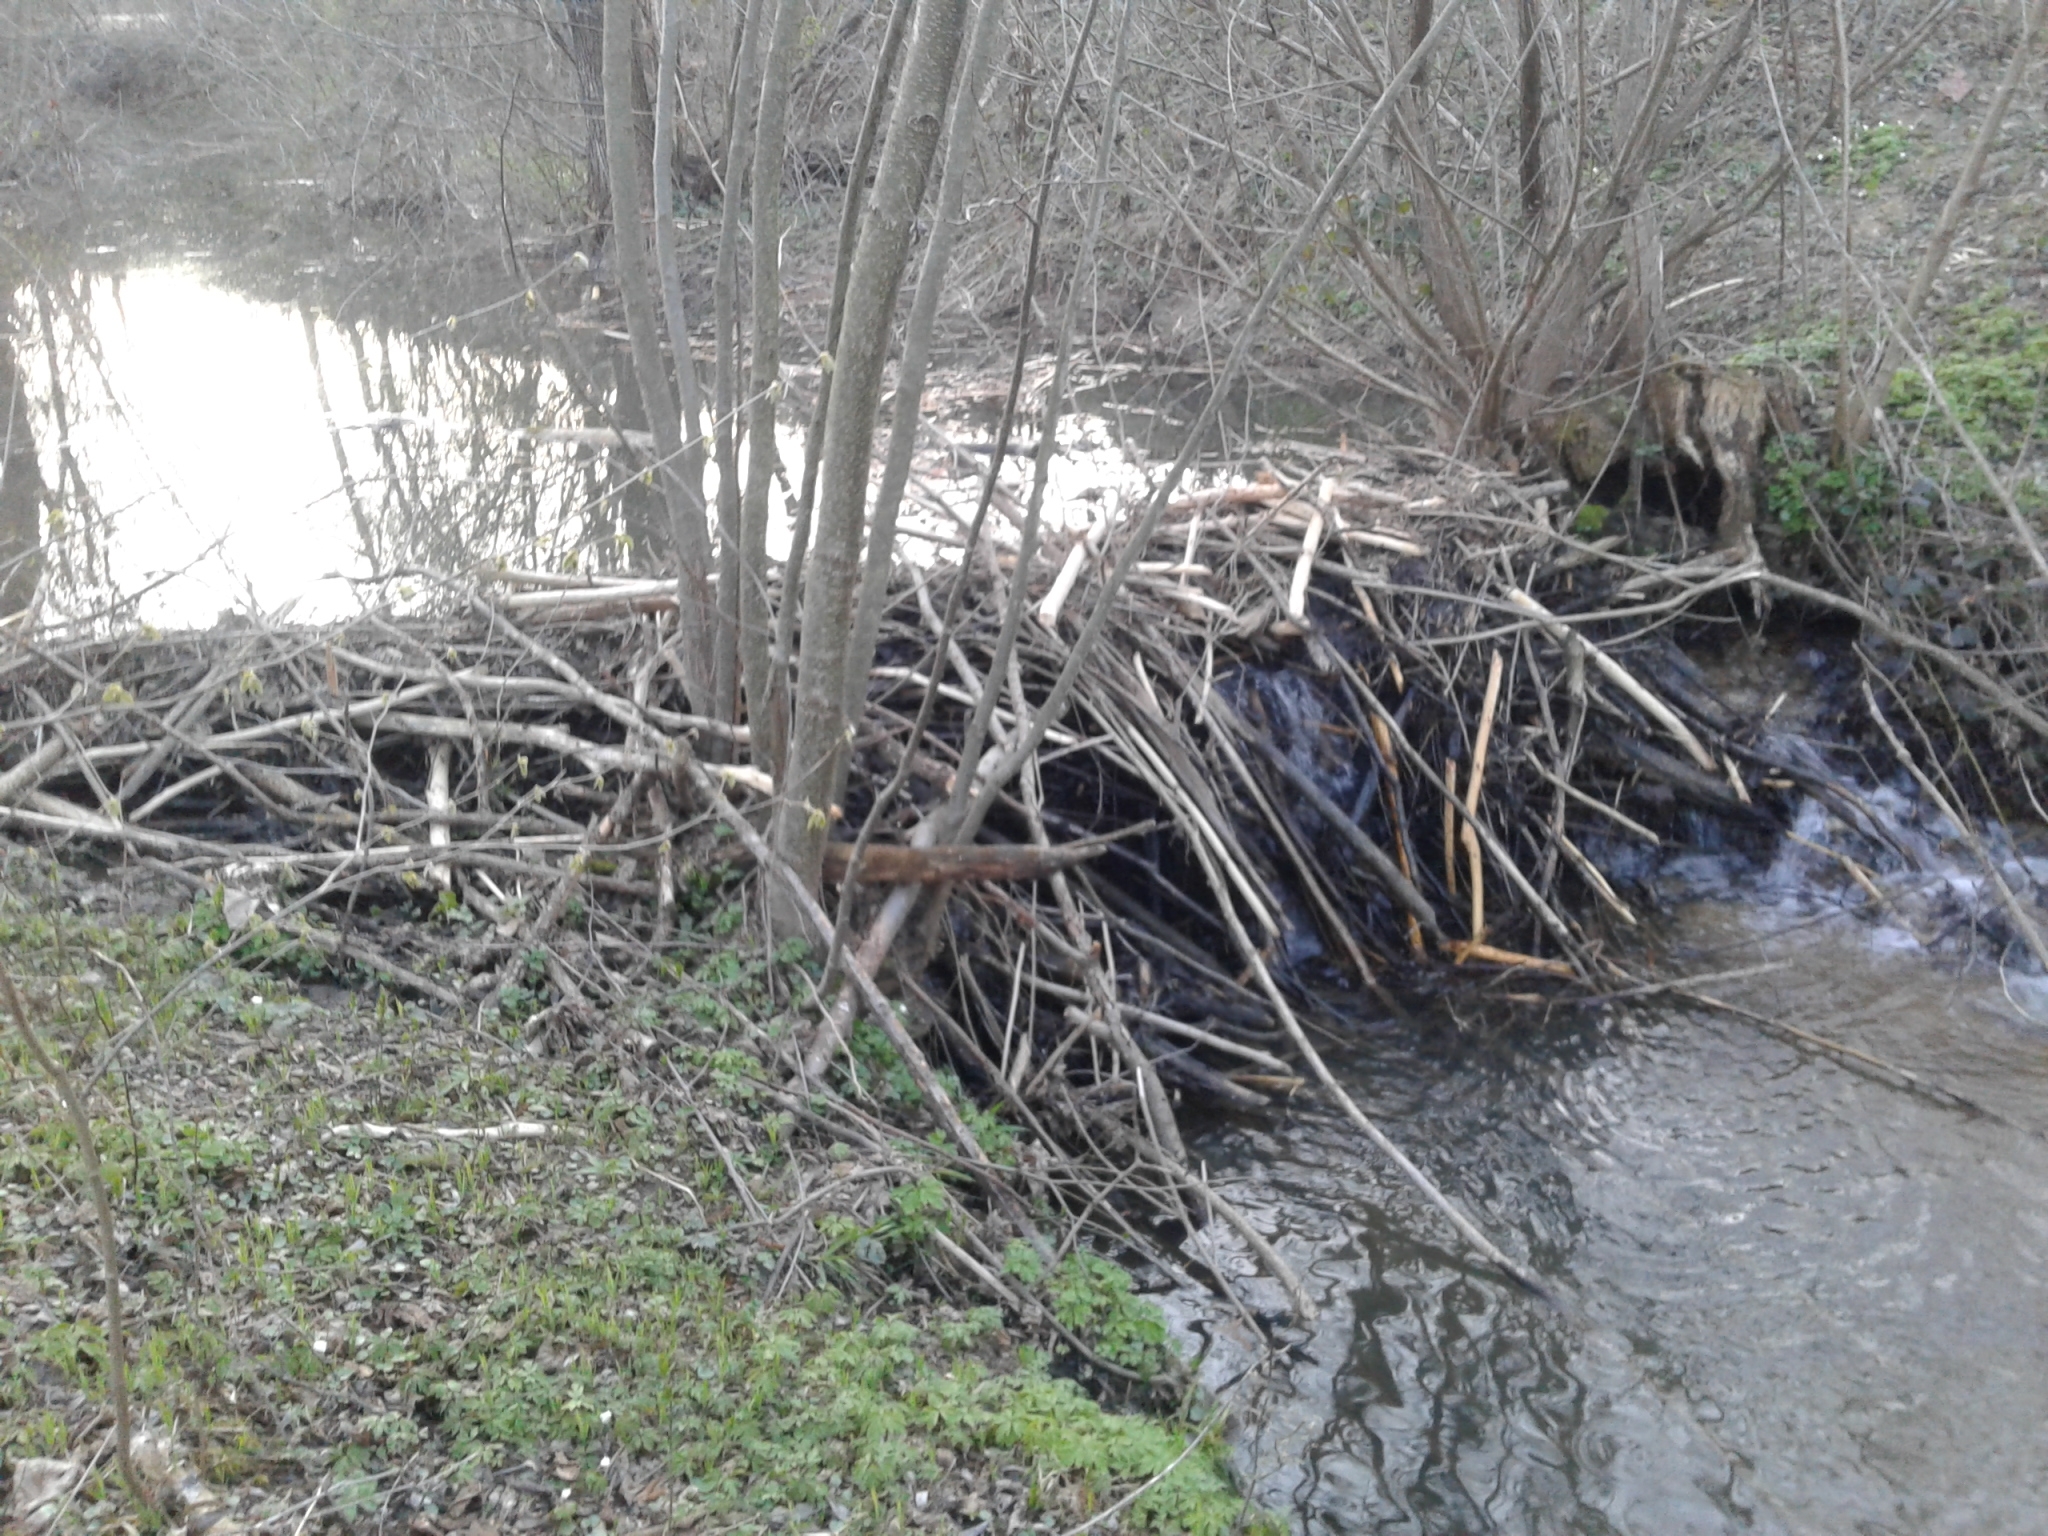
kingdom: Animalia
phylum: Chordata
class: Mammalia
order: Rodentia
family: Castoridae
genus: Castor
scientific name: Castor fiber
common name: Eurasian beaver
